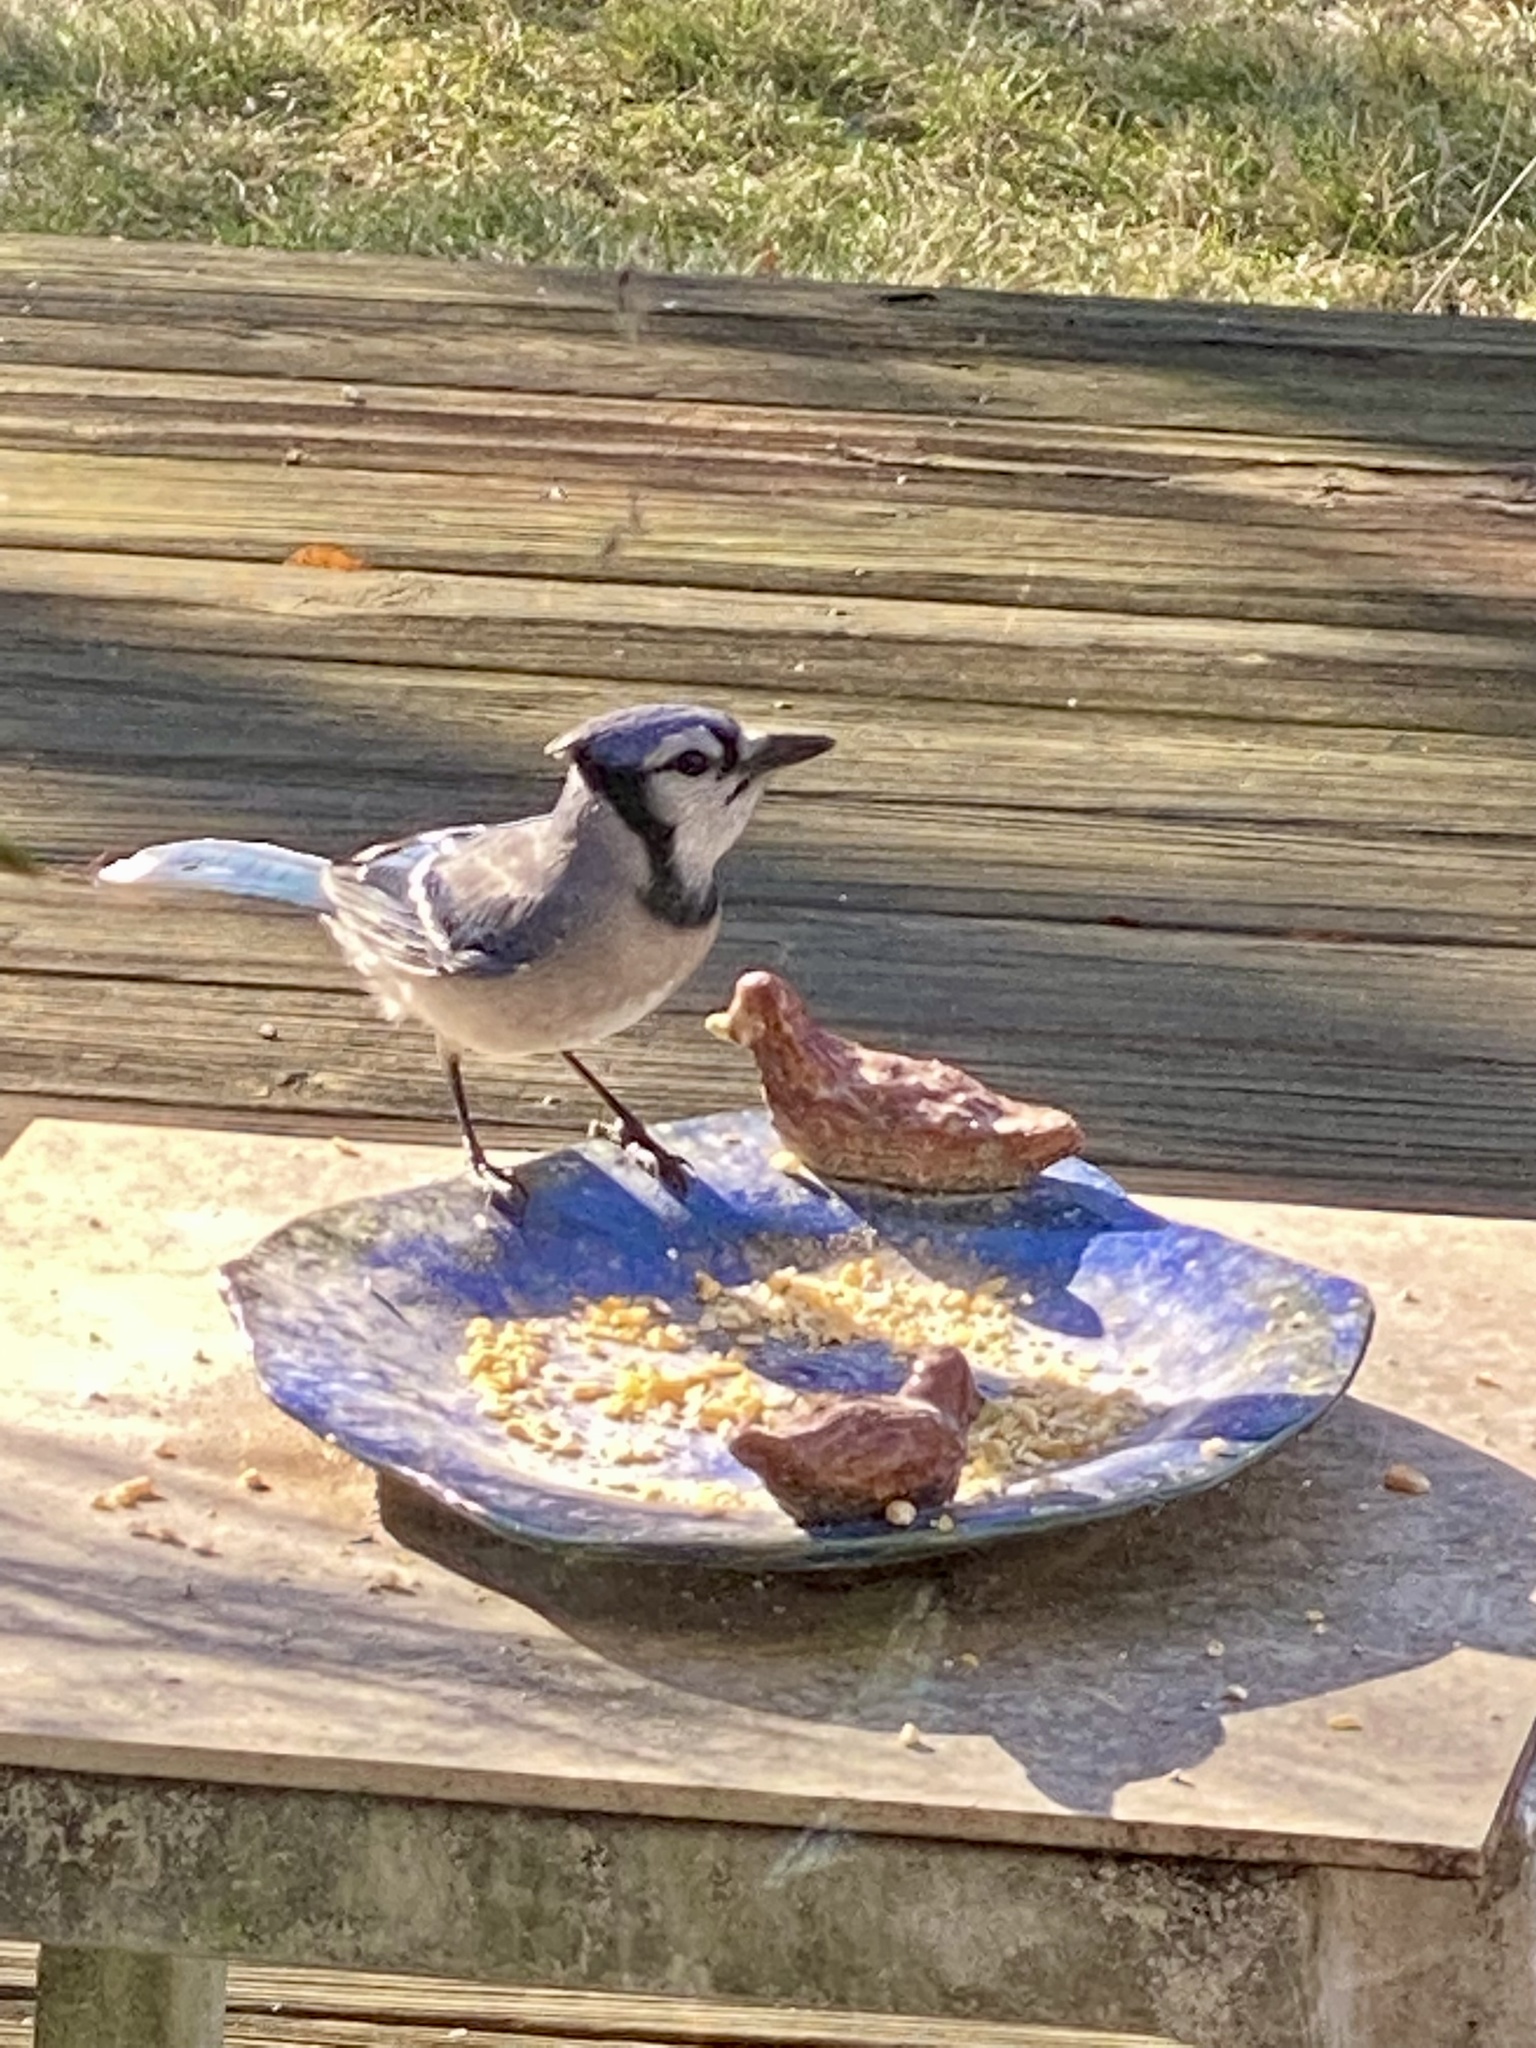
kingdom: Animalia
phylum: Chordata
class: Aves
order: Passeriformes
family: Corvidae
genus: Cyanocitta
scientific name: Cyanocitta cristata
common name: Blue jay
